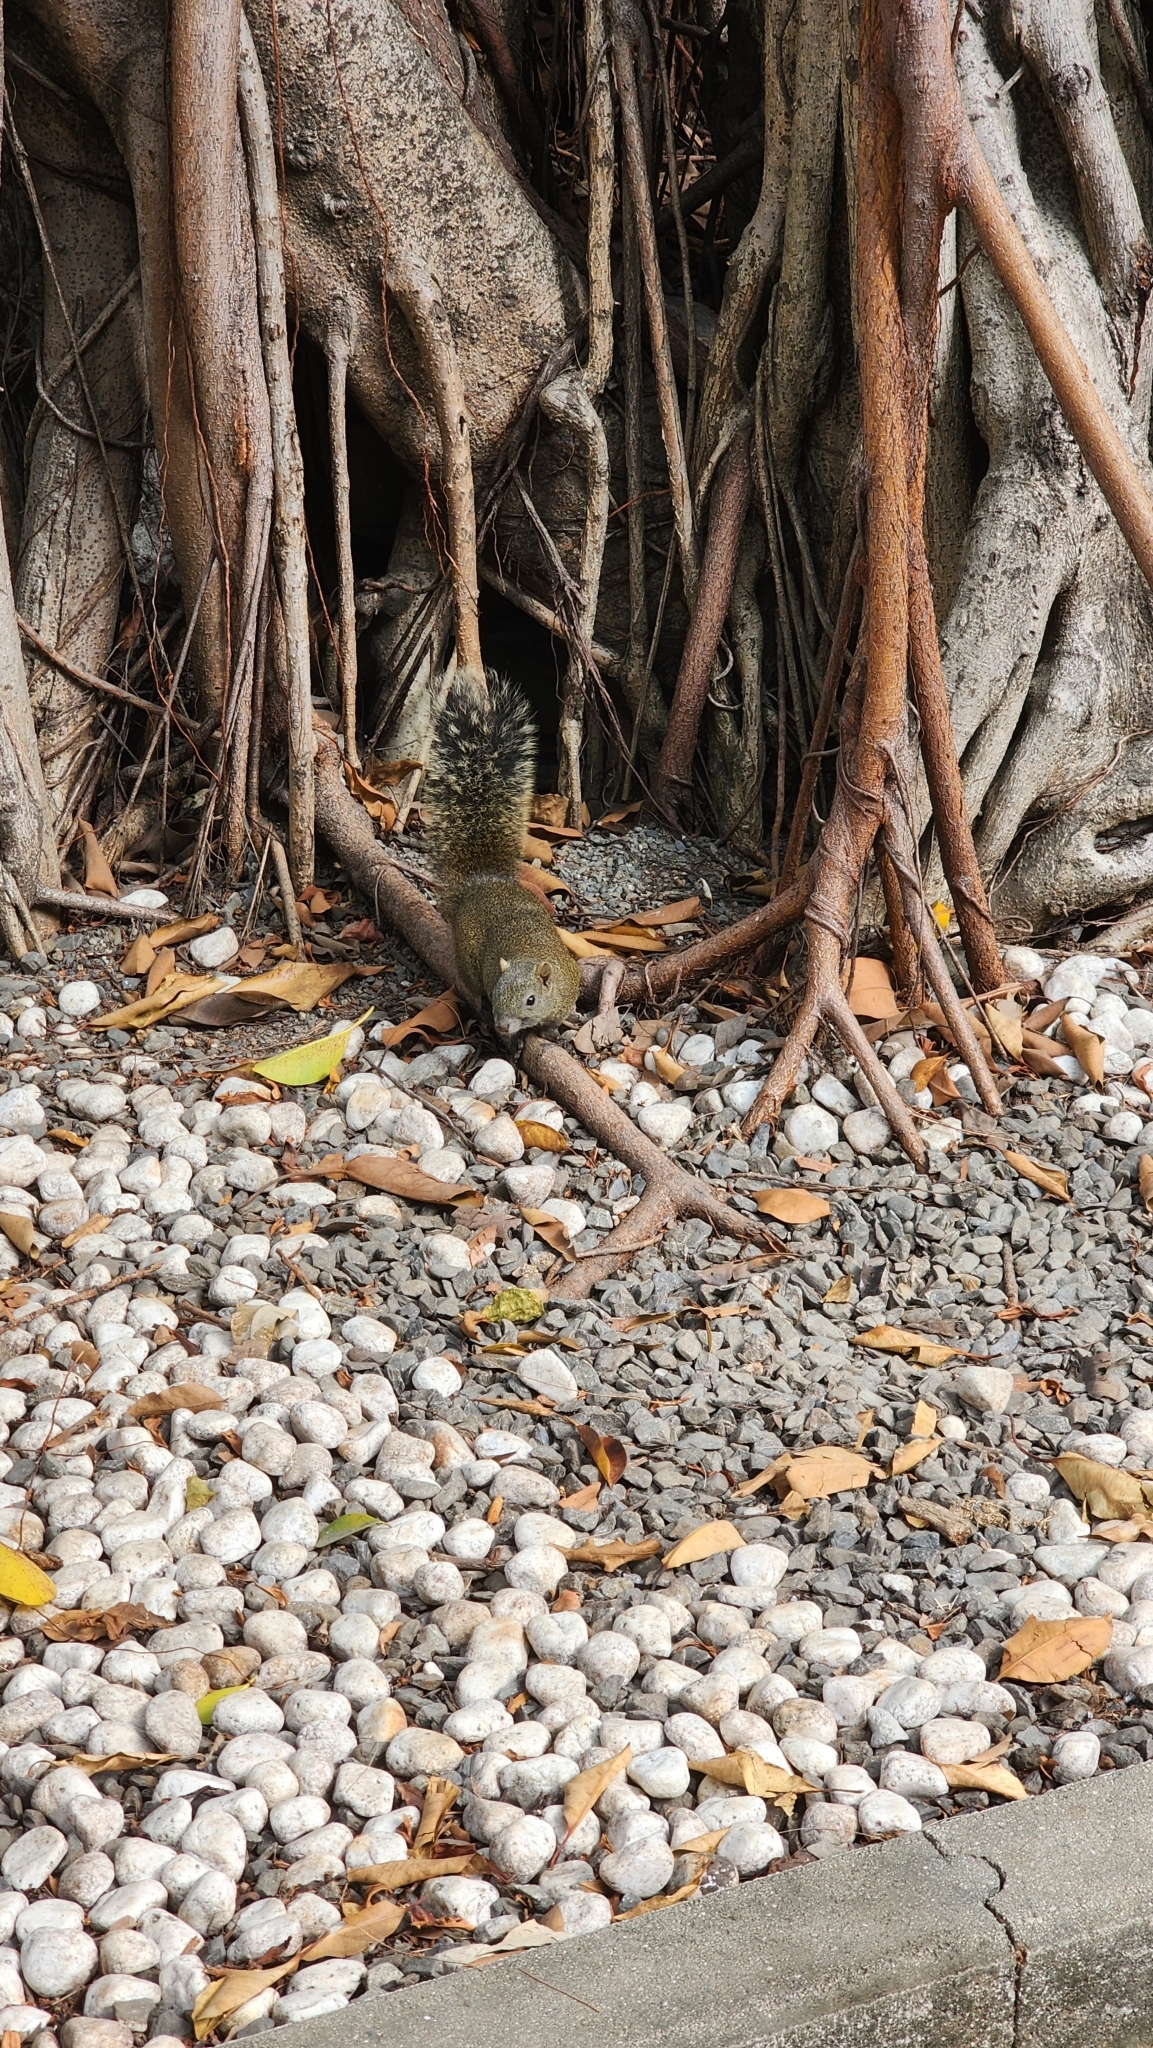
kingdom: Animalia
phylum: Chordata
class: Mammalia
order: Rodentia
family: Sciuridae
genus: Callosciurus
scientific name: Callosciurus erythraeus
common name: Pallas's squirrel
